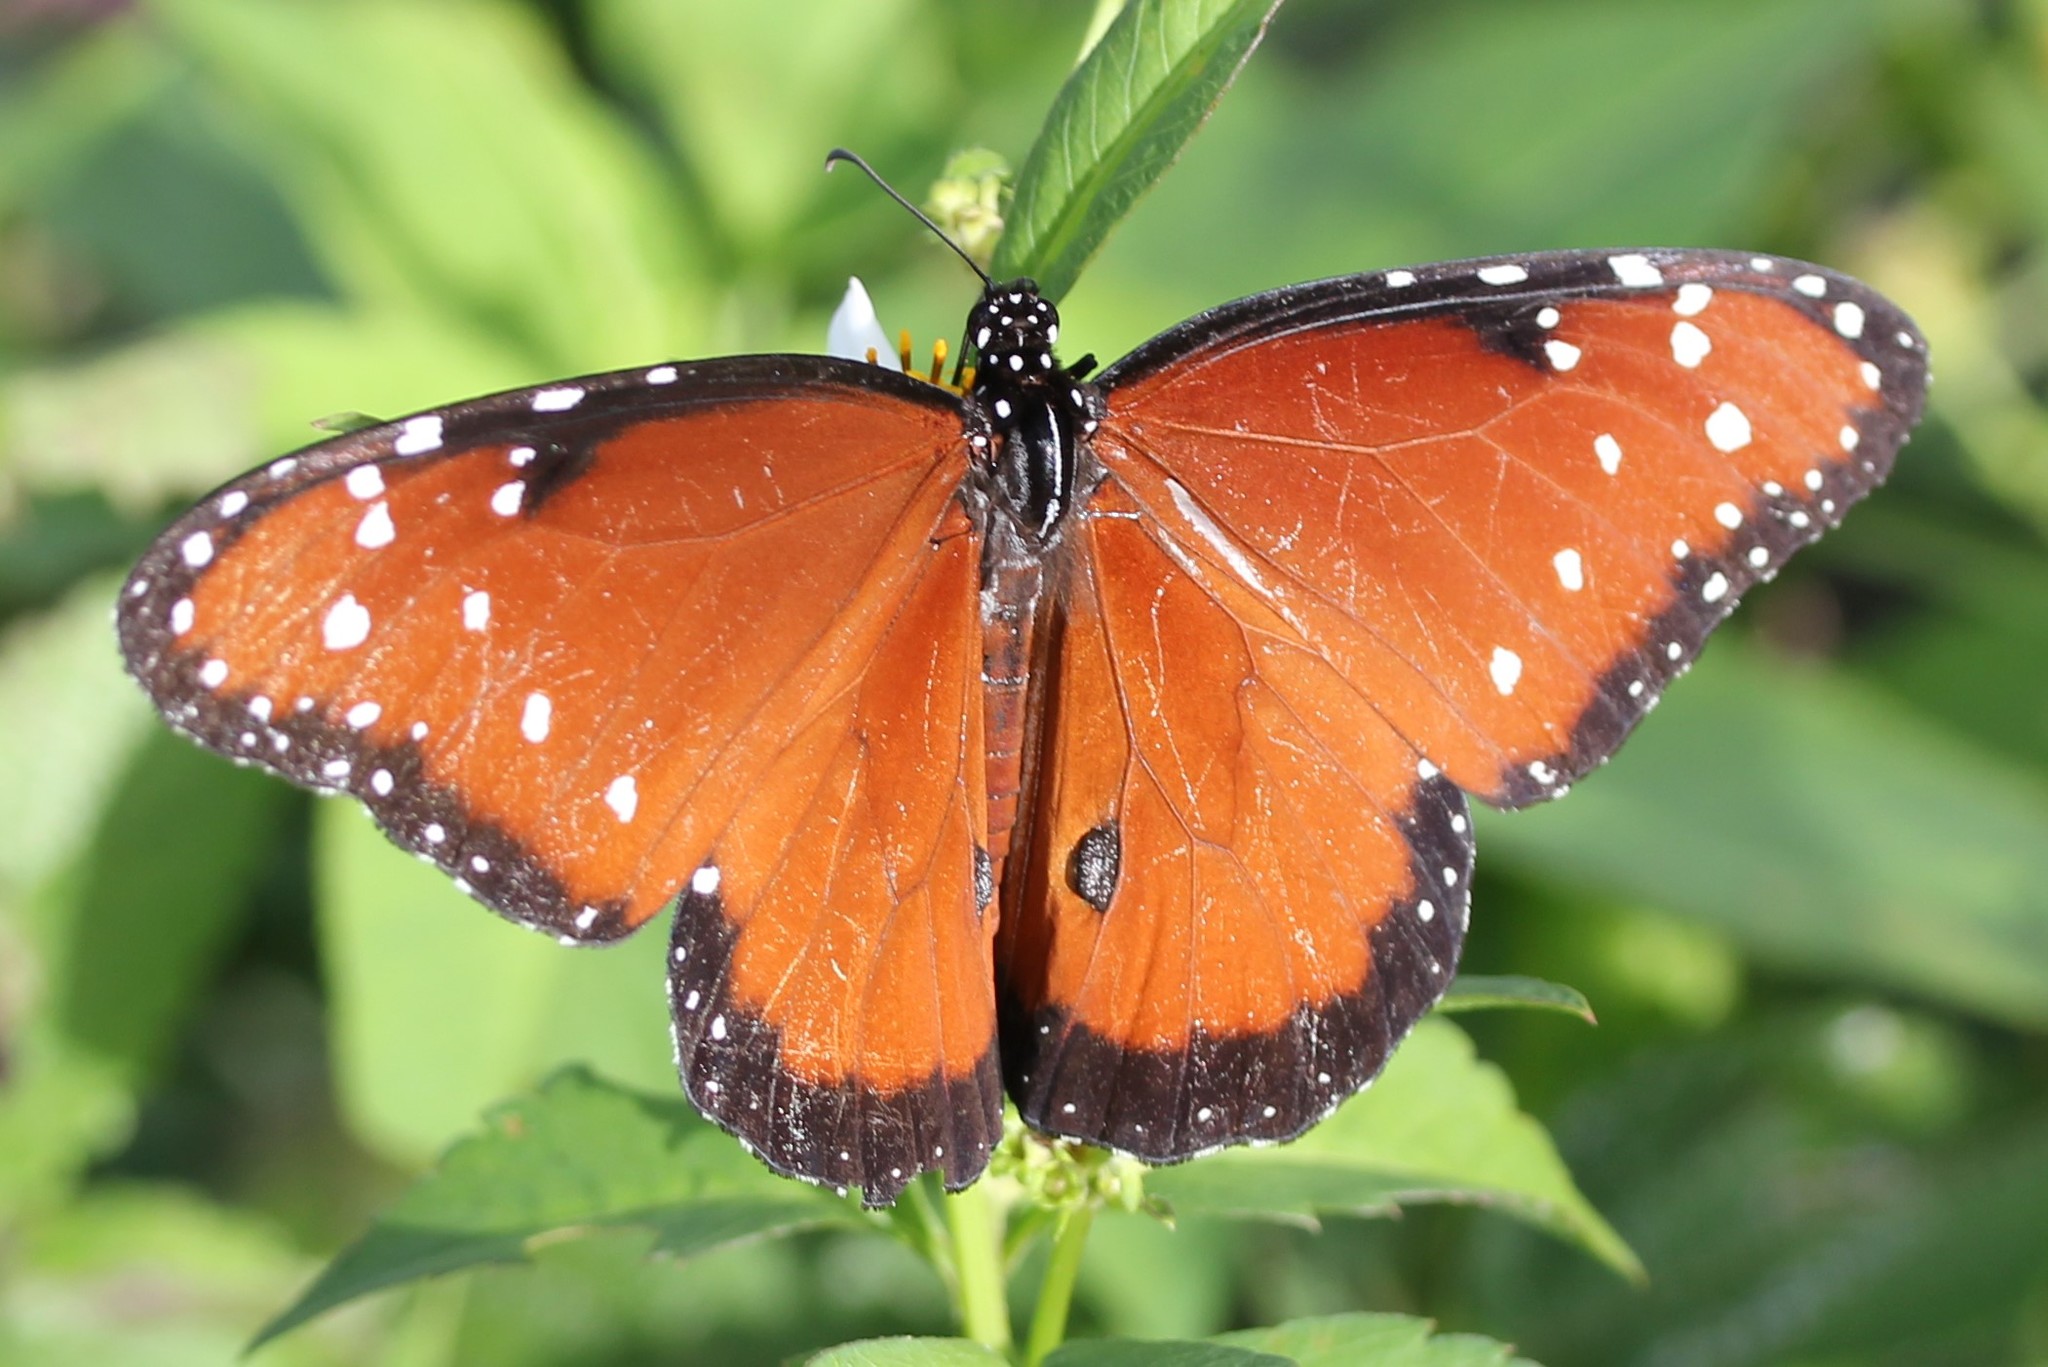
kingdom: Animalia
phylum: Arthropoda
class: Insecta
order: Lepidoptera
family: Nymphalidae
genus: Danaus
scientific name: Danaus gilippus
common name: Queen
